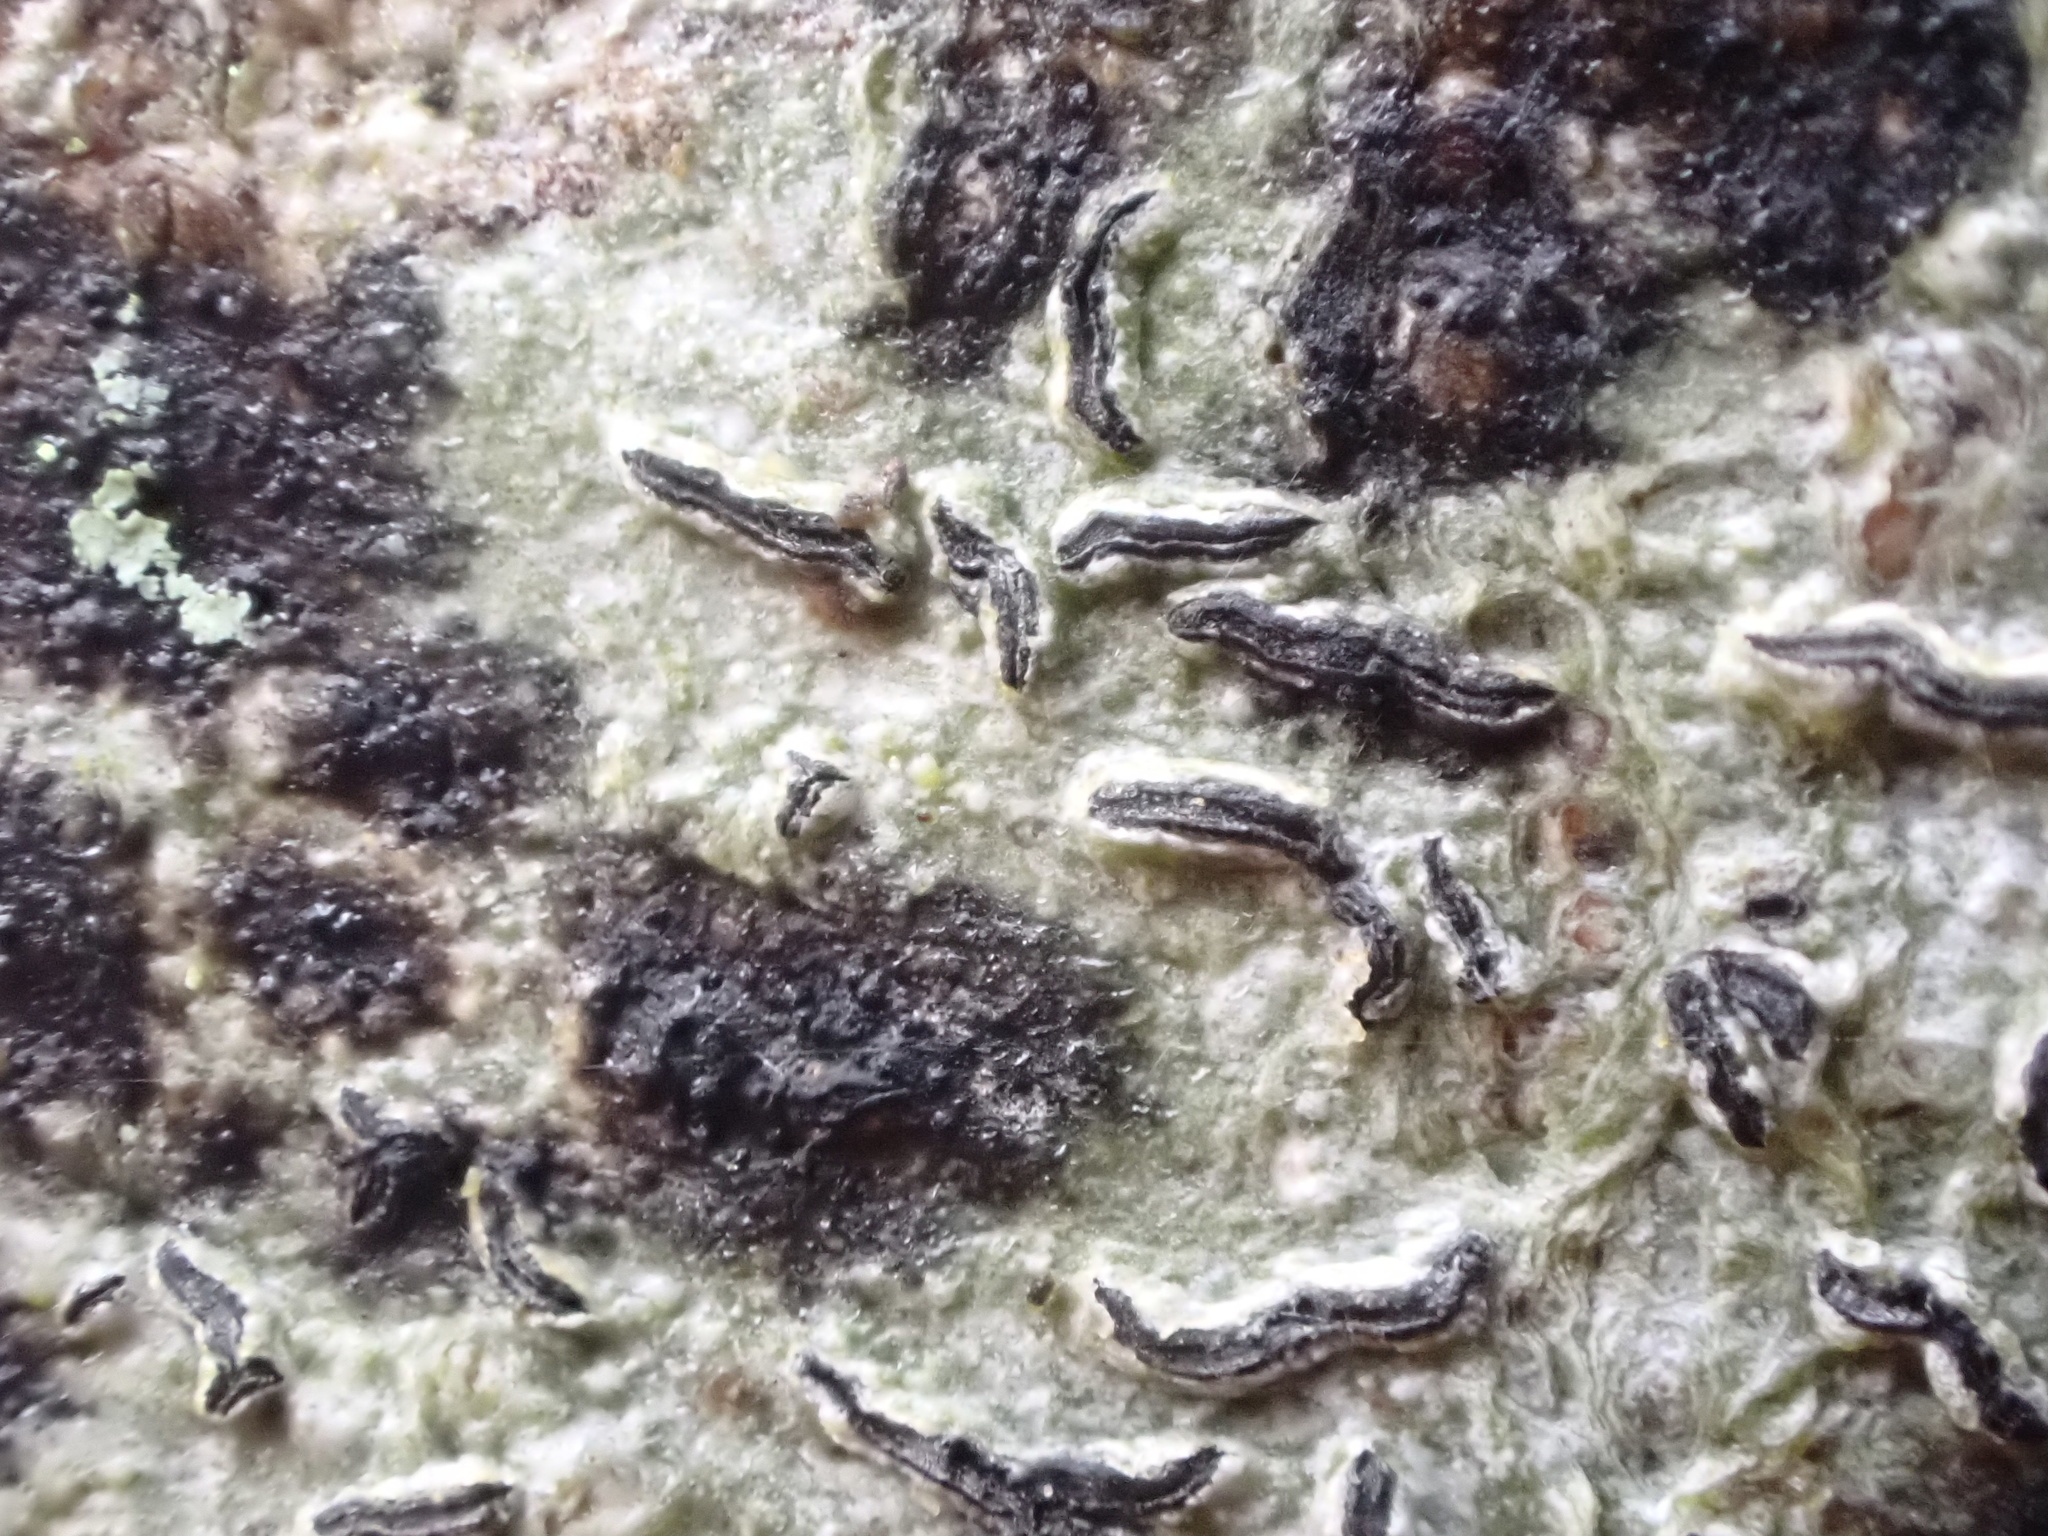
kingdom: Fungi
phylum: Ascomycota
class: Lecanoromycetes
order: Ostropales
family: Graphidaceae
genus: Graphis
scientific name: Graphis scripta
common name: Script lichen
